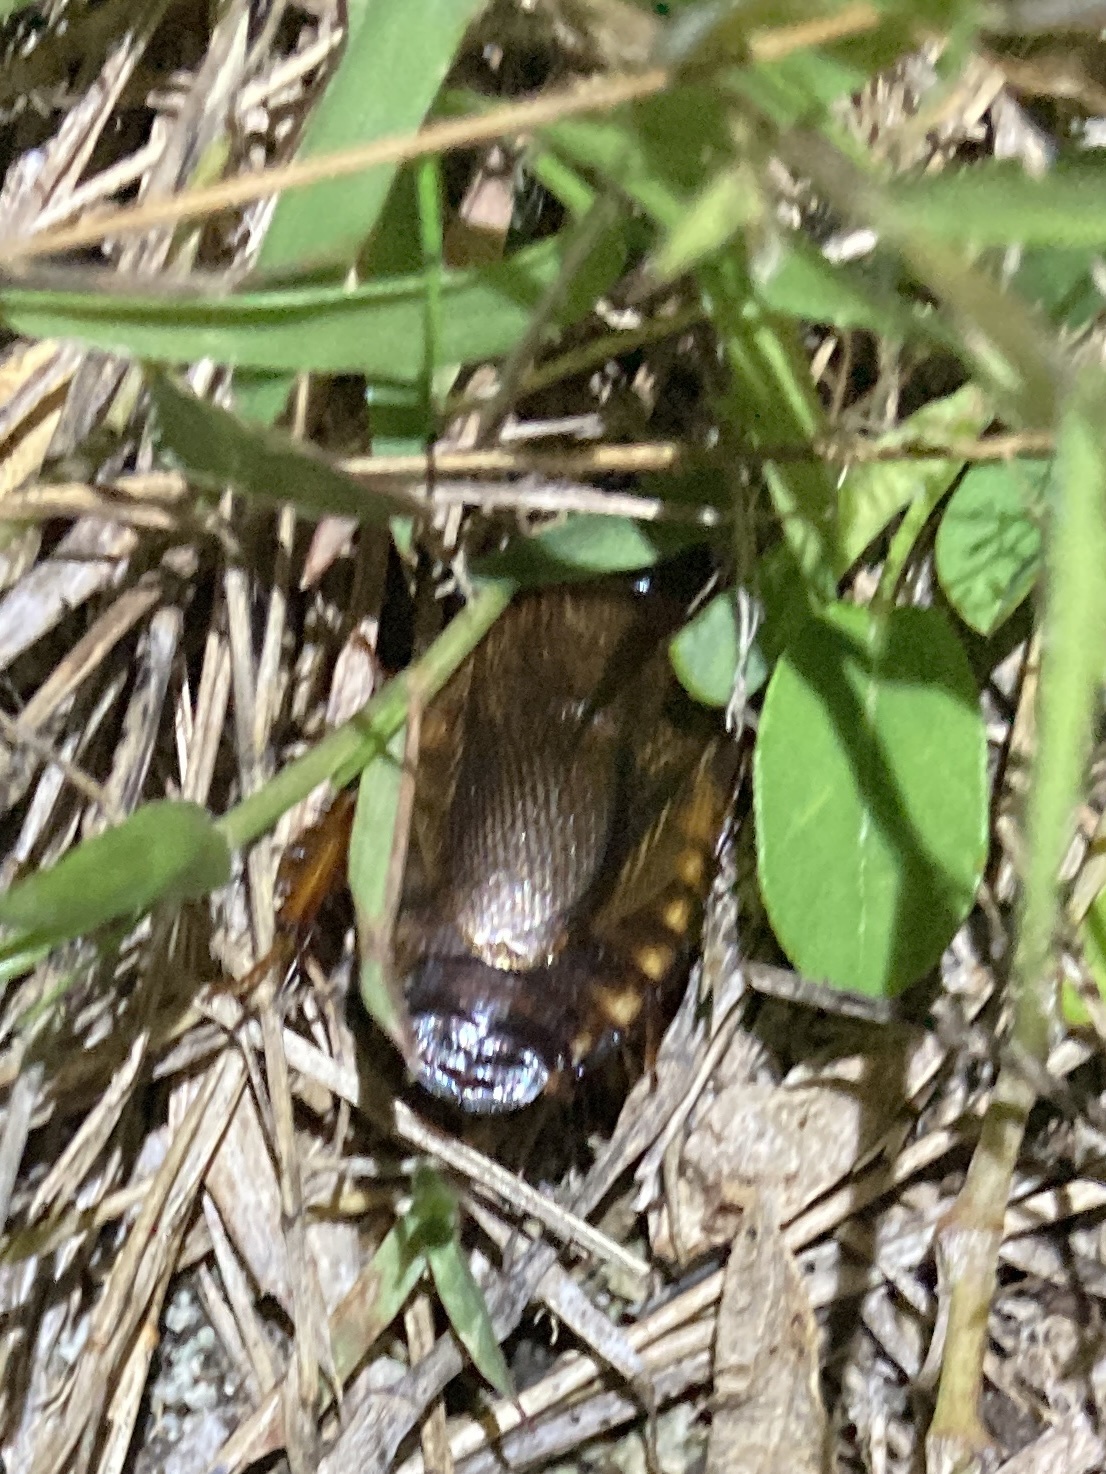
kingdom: Animalia
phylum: Arthropoda
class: Insecta
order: Blattodea
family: Blaberidae
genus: Pycnoscelus
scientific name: Pycnoscelus surinamensis
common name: Surinam cockroach
